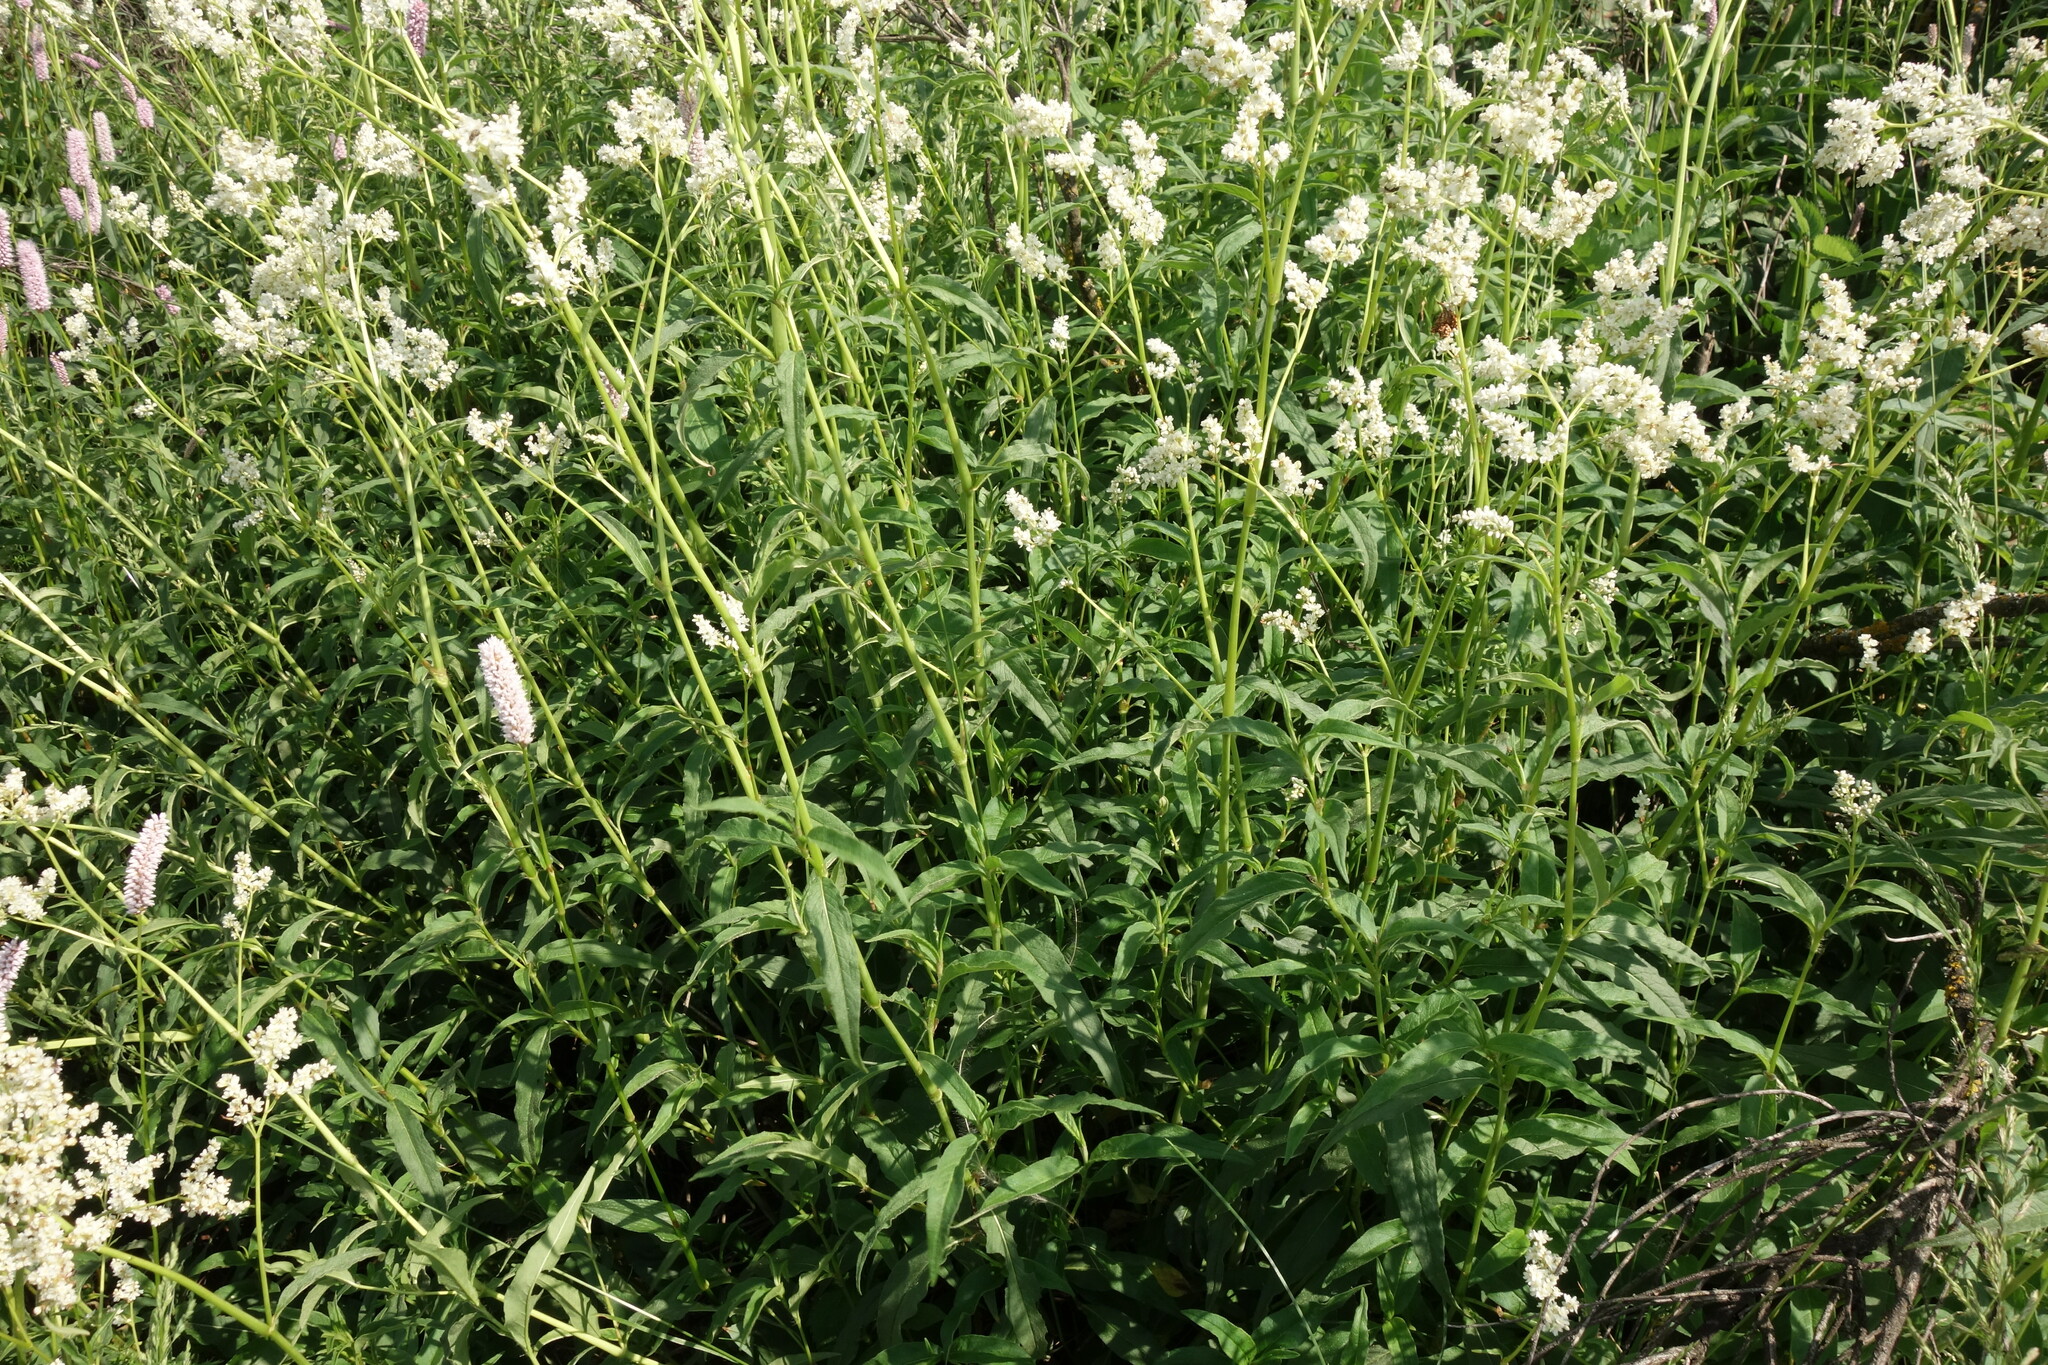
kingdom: Plantae
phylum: Tracheophyta
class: Magnoliopsida
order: Caryophyllales
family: Polygonaceae
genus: Koenigia
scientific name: Koenigia alpina
